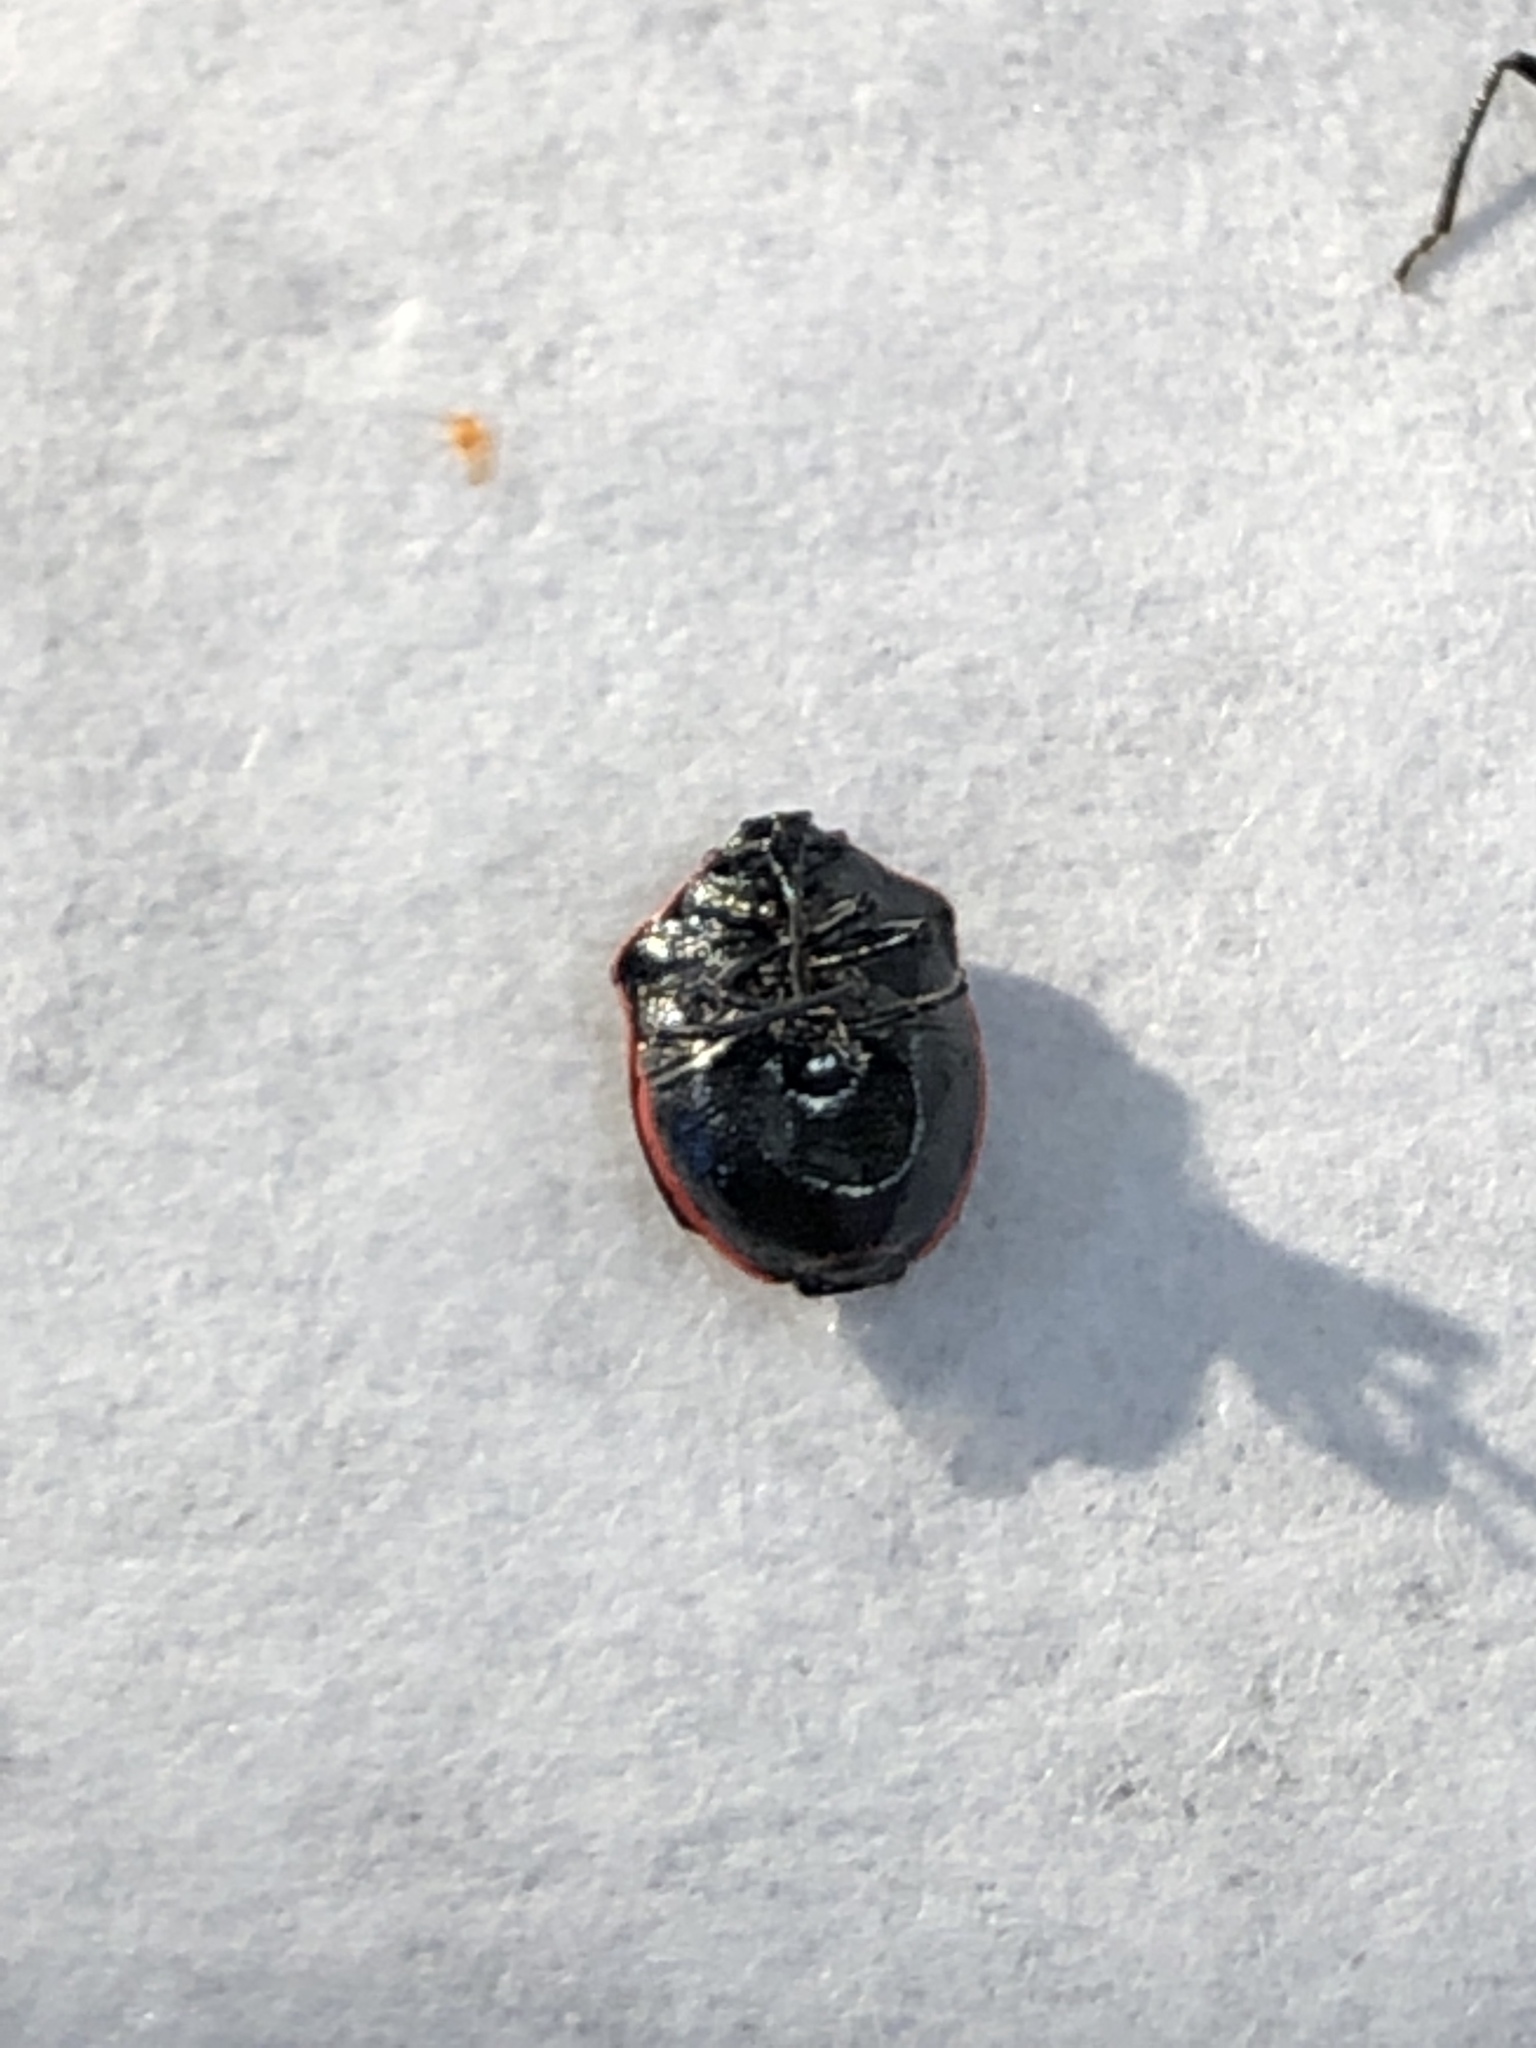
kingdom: Animalia
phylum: Arthropoda
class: Insecta
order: Hemiptera
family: Pentatomidae
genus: Cosmopepla
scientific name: Cosmopepla lintneriana
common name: Twice-stabbed stink bug
